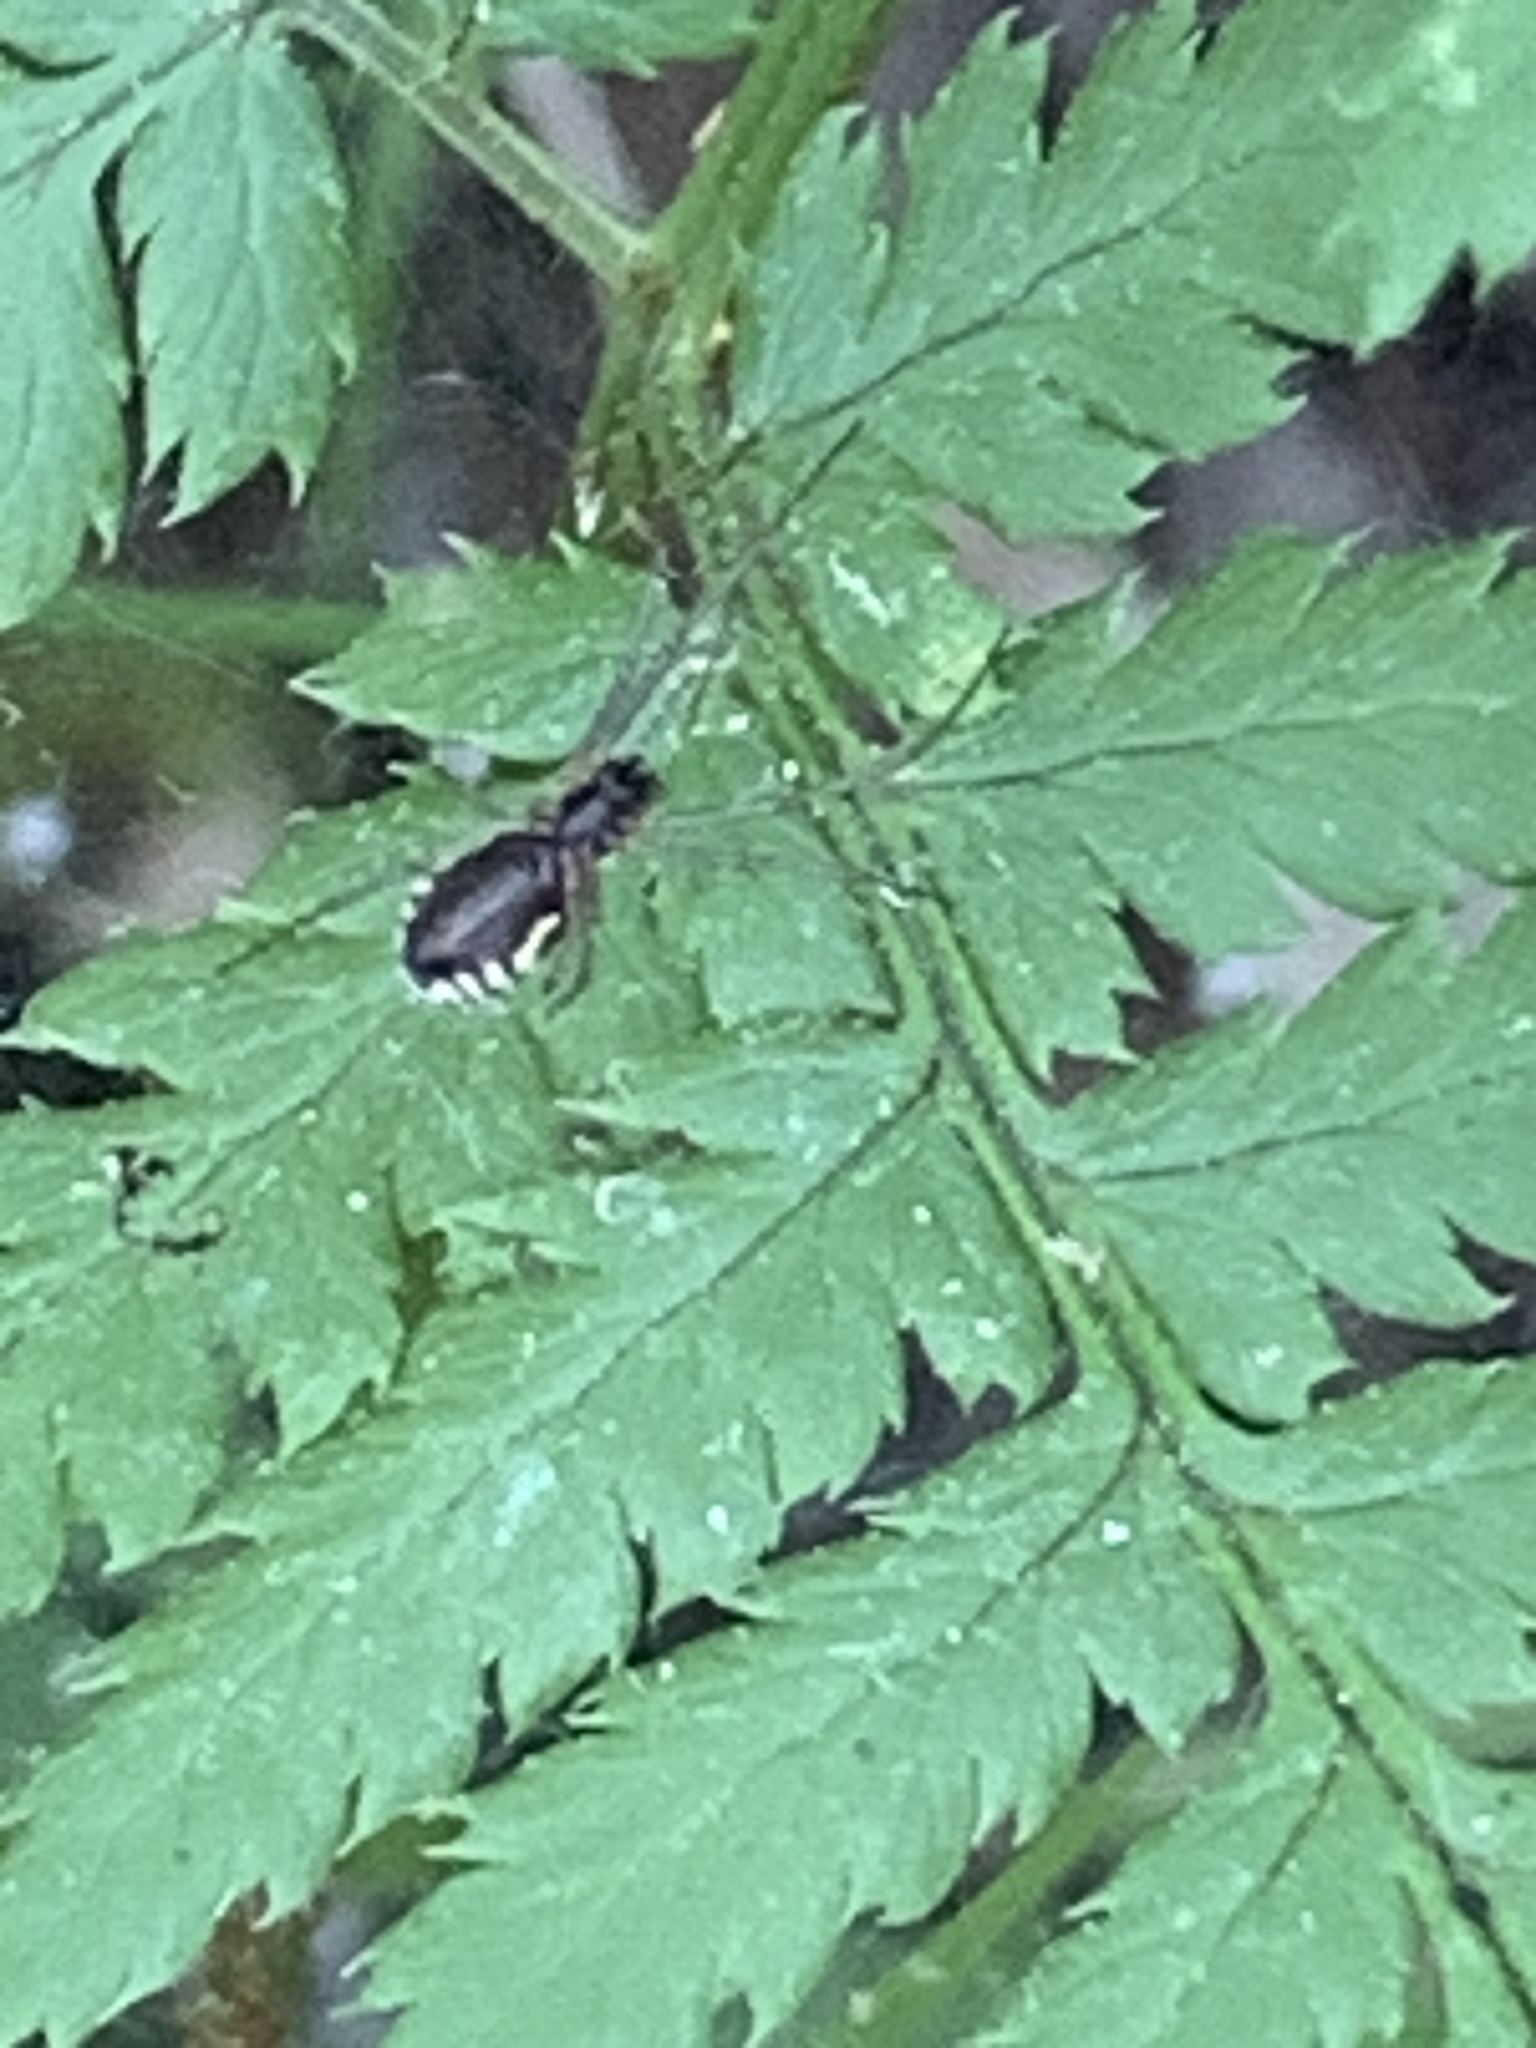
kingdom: Animalia
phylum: Arthropoda
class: Arachnida
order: Araneae
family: Linyphiidae
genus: Frontinella
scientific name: Frontinella pyramitela
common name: Bowl-and-doily spider
